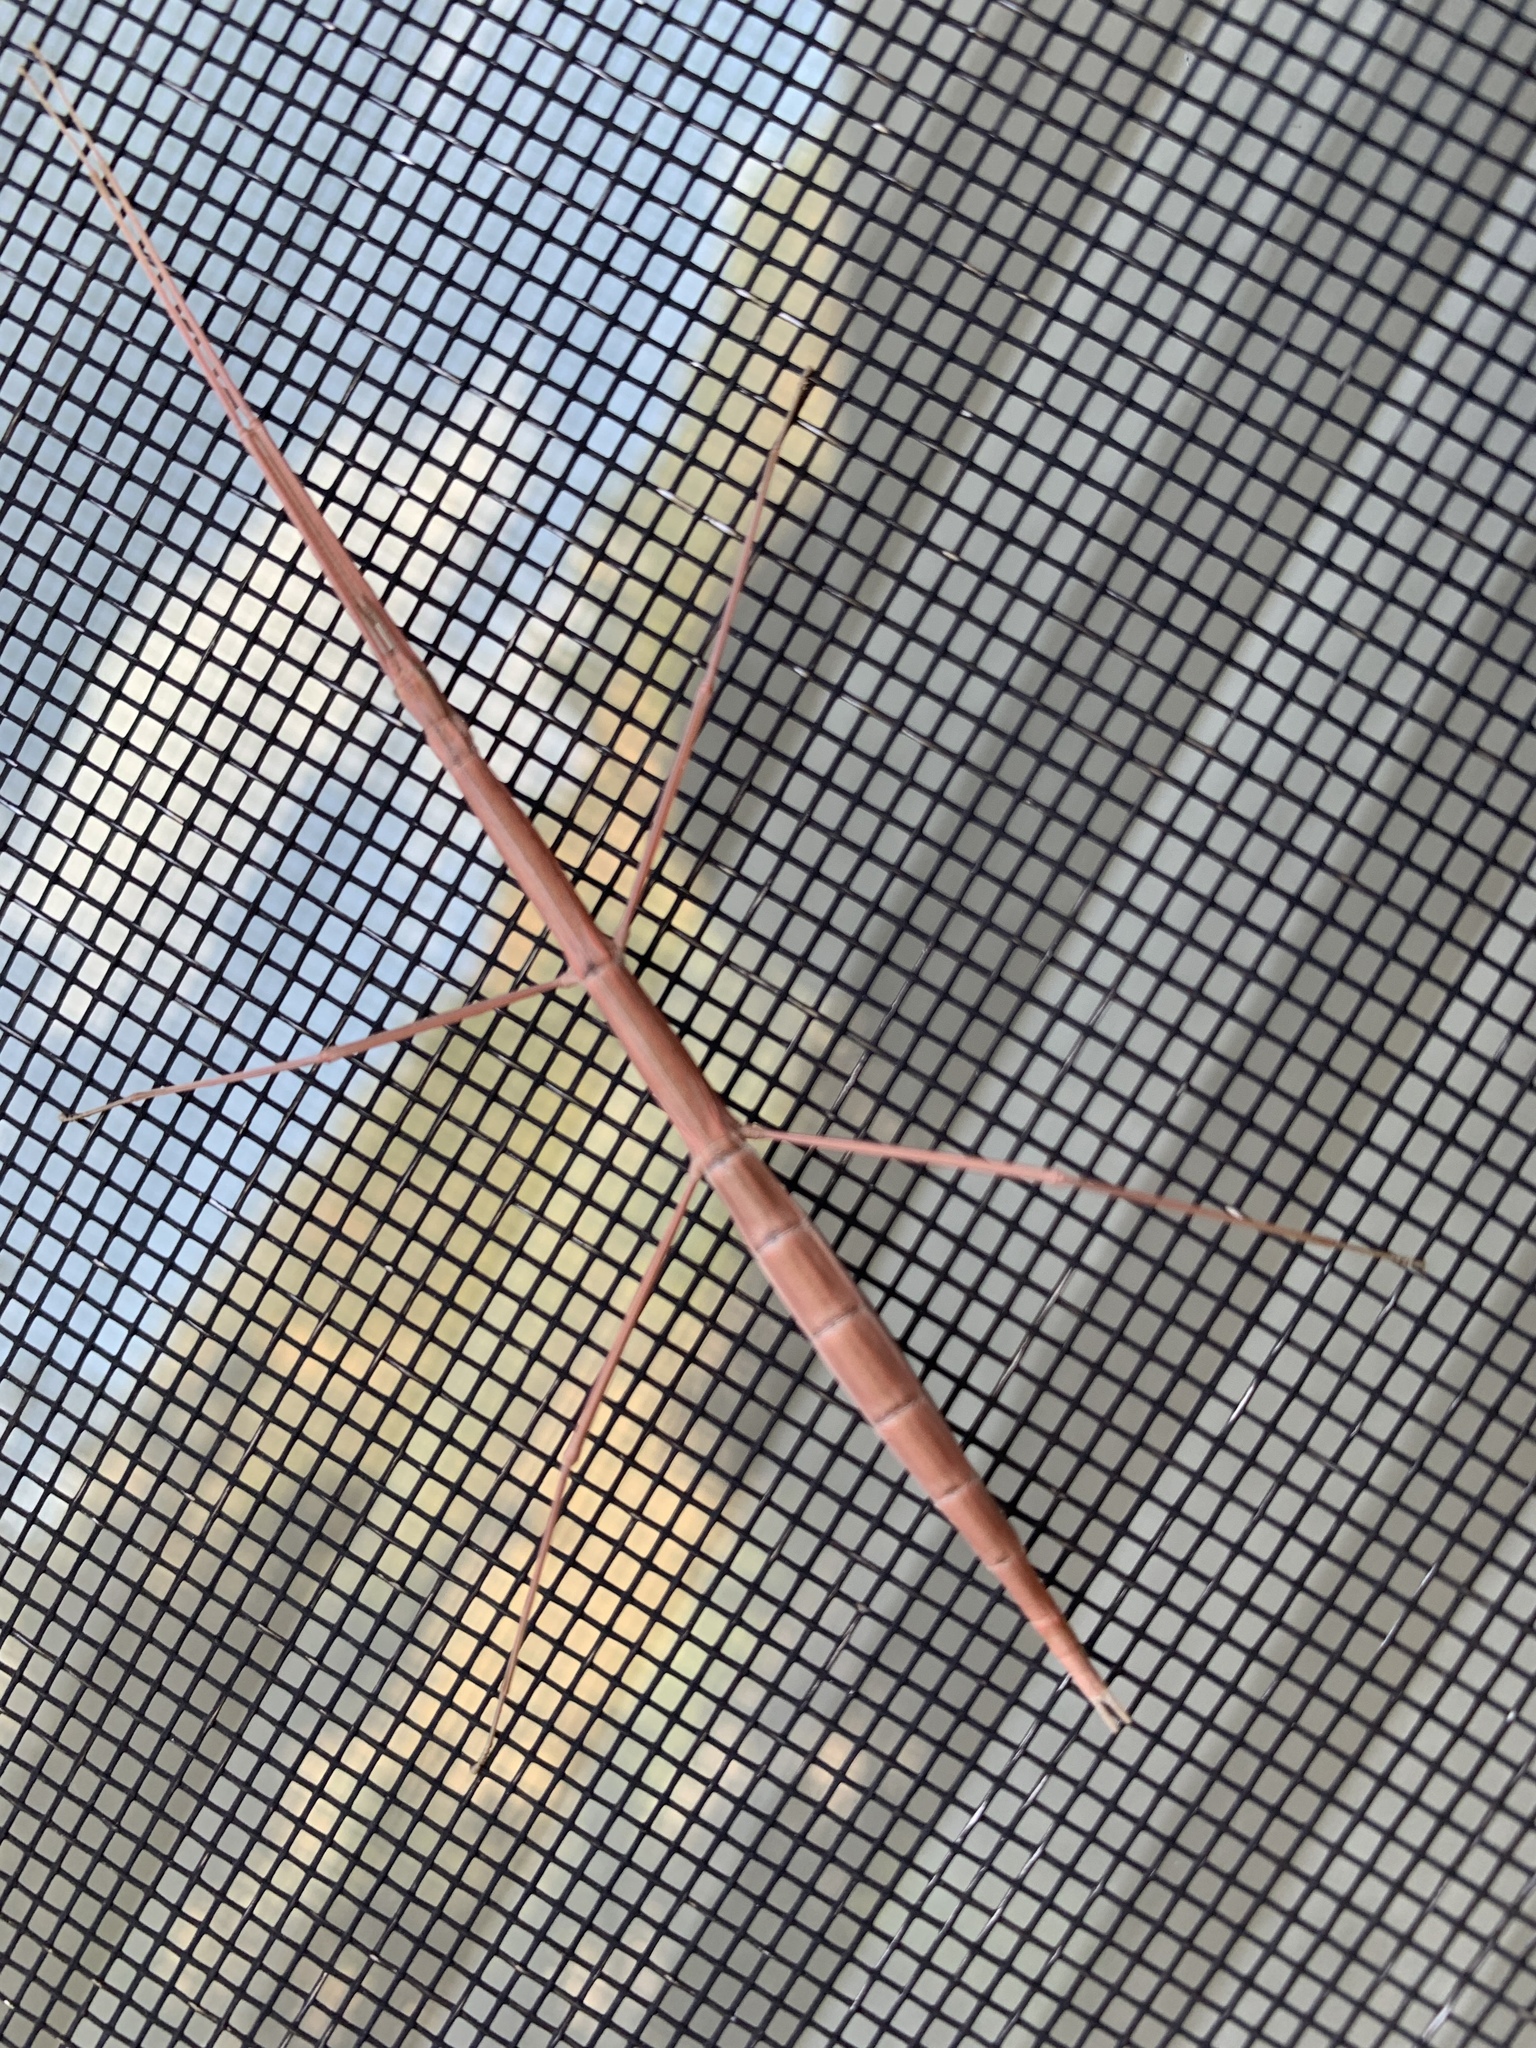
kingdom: Animalia
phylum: Arthropoda
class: Insecta
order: Phasmida
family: Heteronemiidae
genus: Parabacillus
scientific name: Parabacillus coloradus
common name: Colorado short-horned walkingstick
